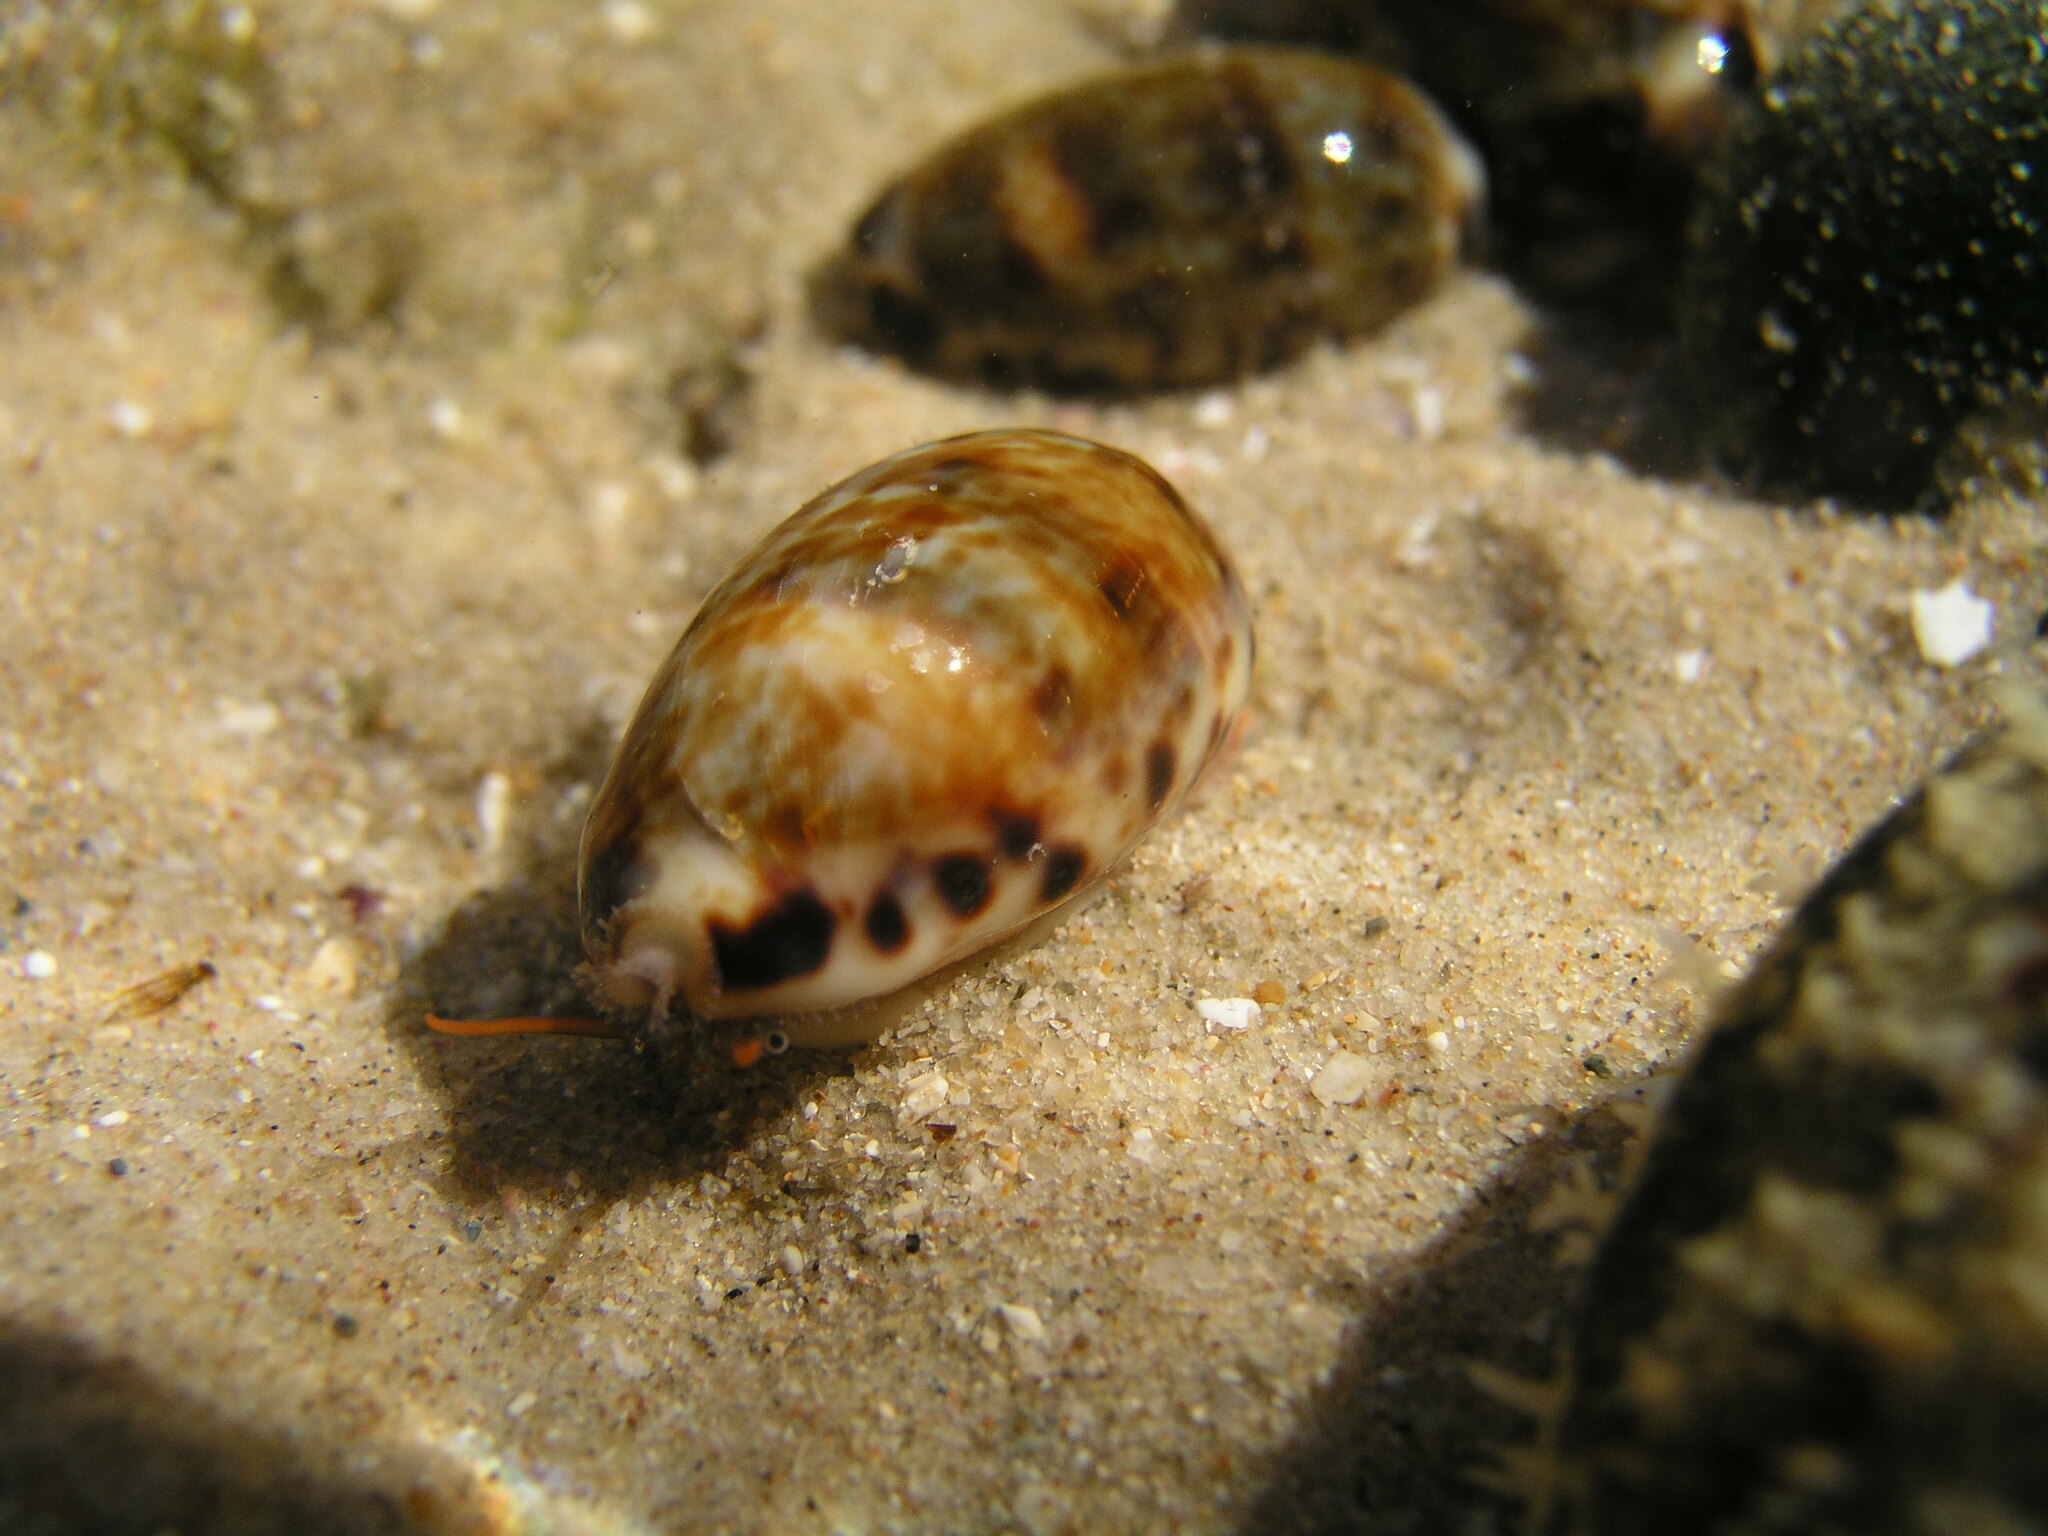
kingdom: Animalia
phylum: Mollusca
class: Gastropoda
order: Littorinimorpha
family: Cypraeidae
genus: Melicerona
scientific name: Melicerona listeri
